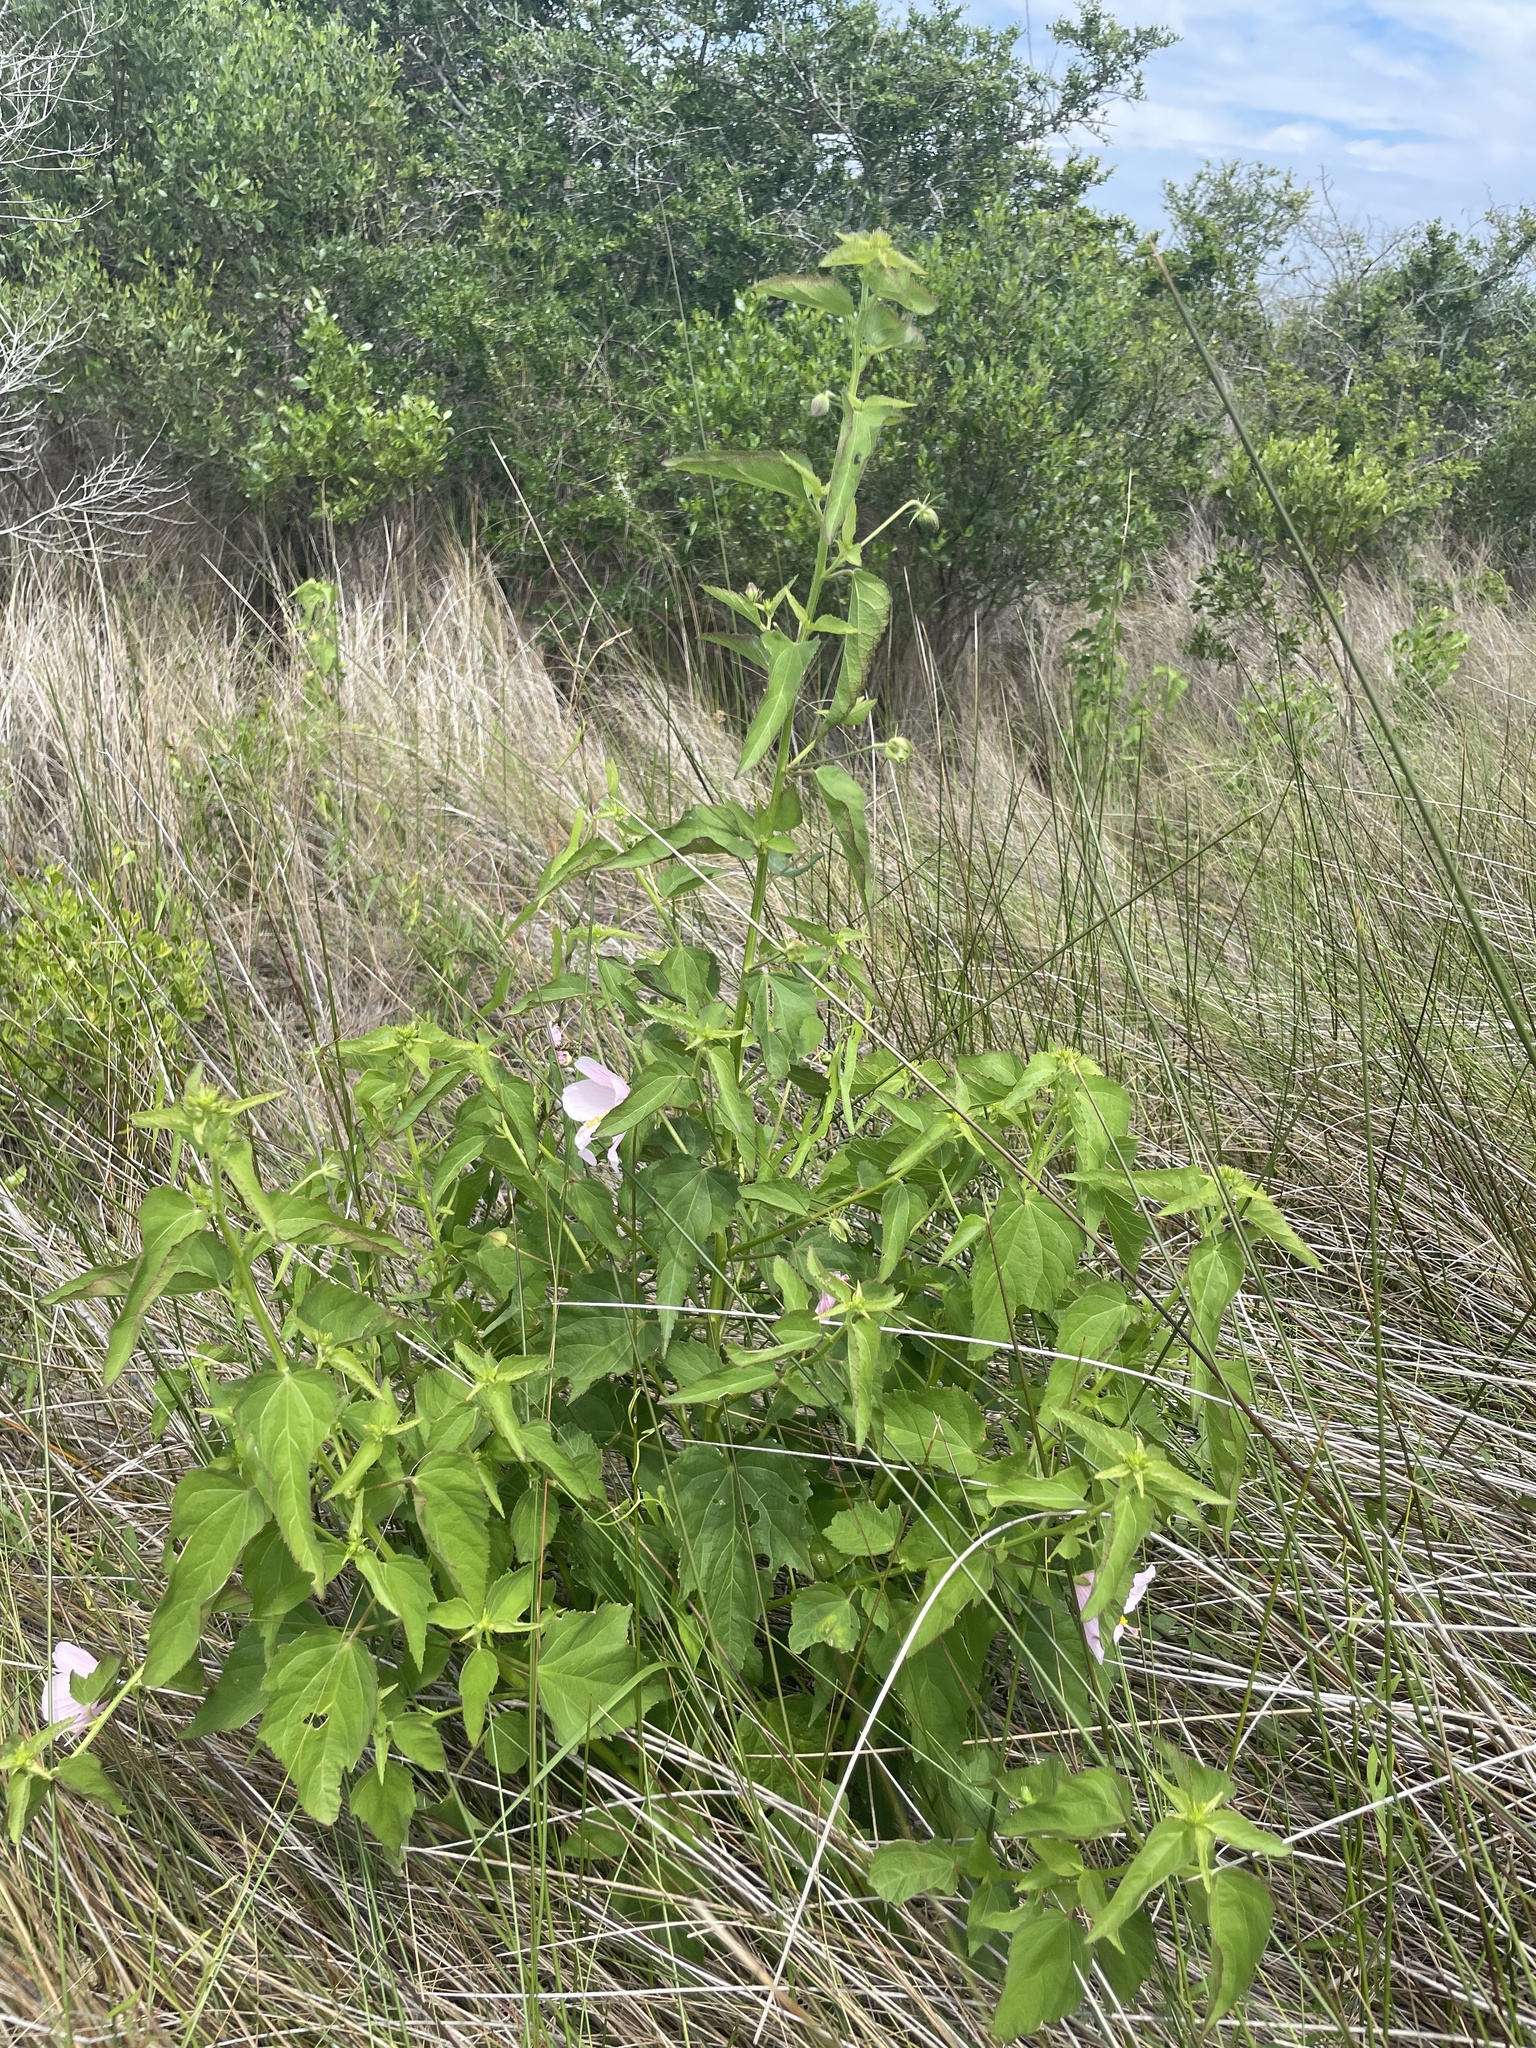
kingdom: Plantae
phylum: Tracheophyta
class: Magnoliopsida
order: Malvales
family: Malvaceae
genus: Kosteletzkya
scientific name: Kosteletzkya pentacarpos
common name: Virginia saltmarsh mallow
